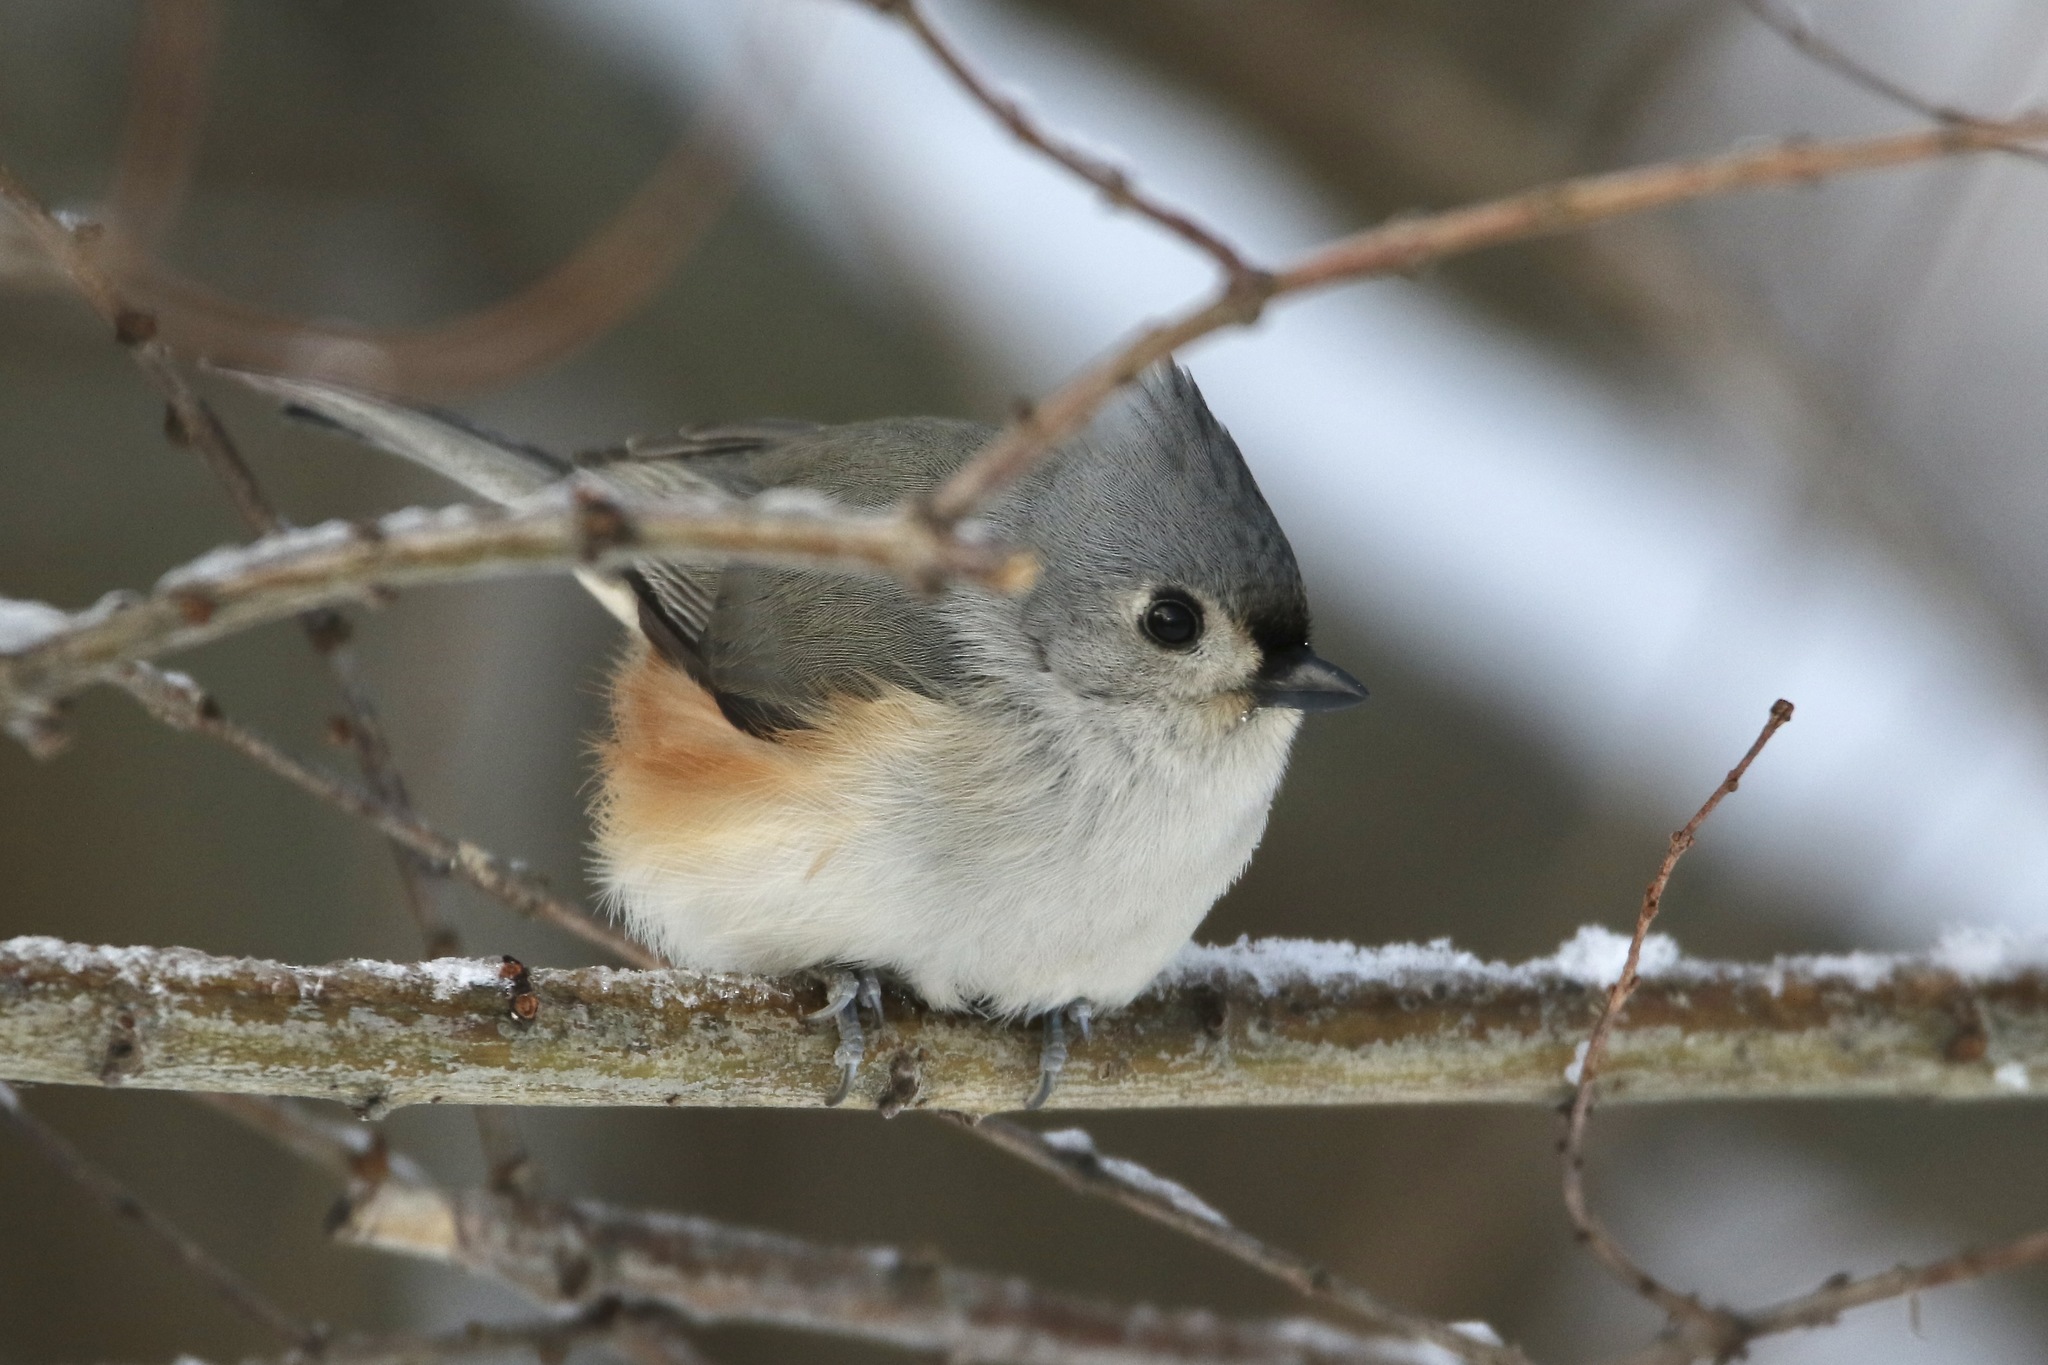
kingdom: Animalia
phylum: Chordata
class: Aves
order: Passeriformes
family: Paridae
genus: Baeolophus
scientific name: Baeolophus bicolor
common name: Tufted titmouse
